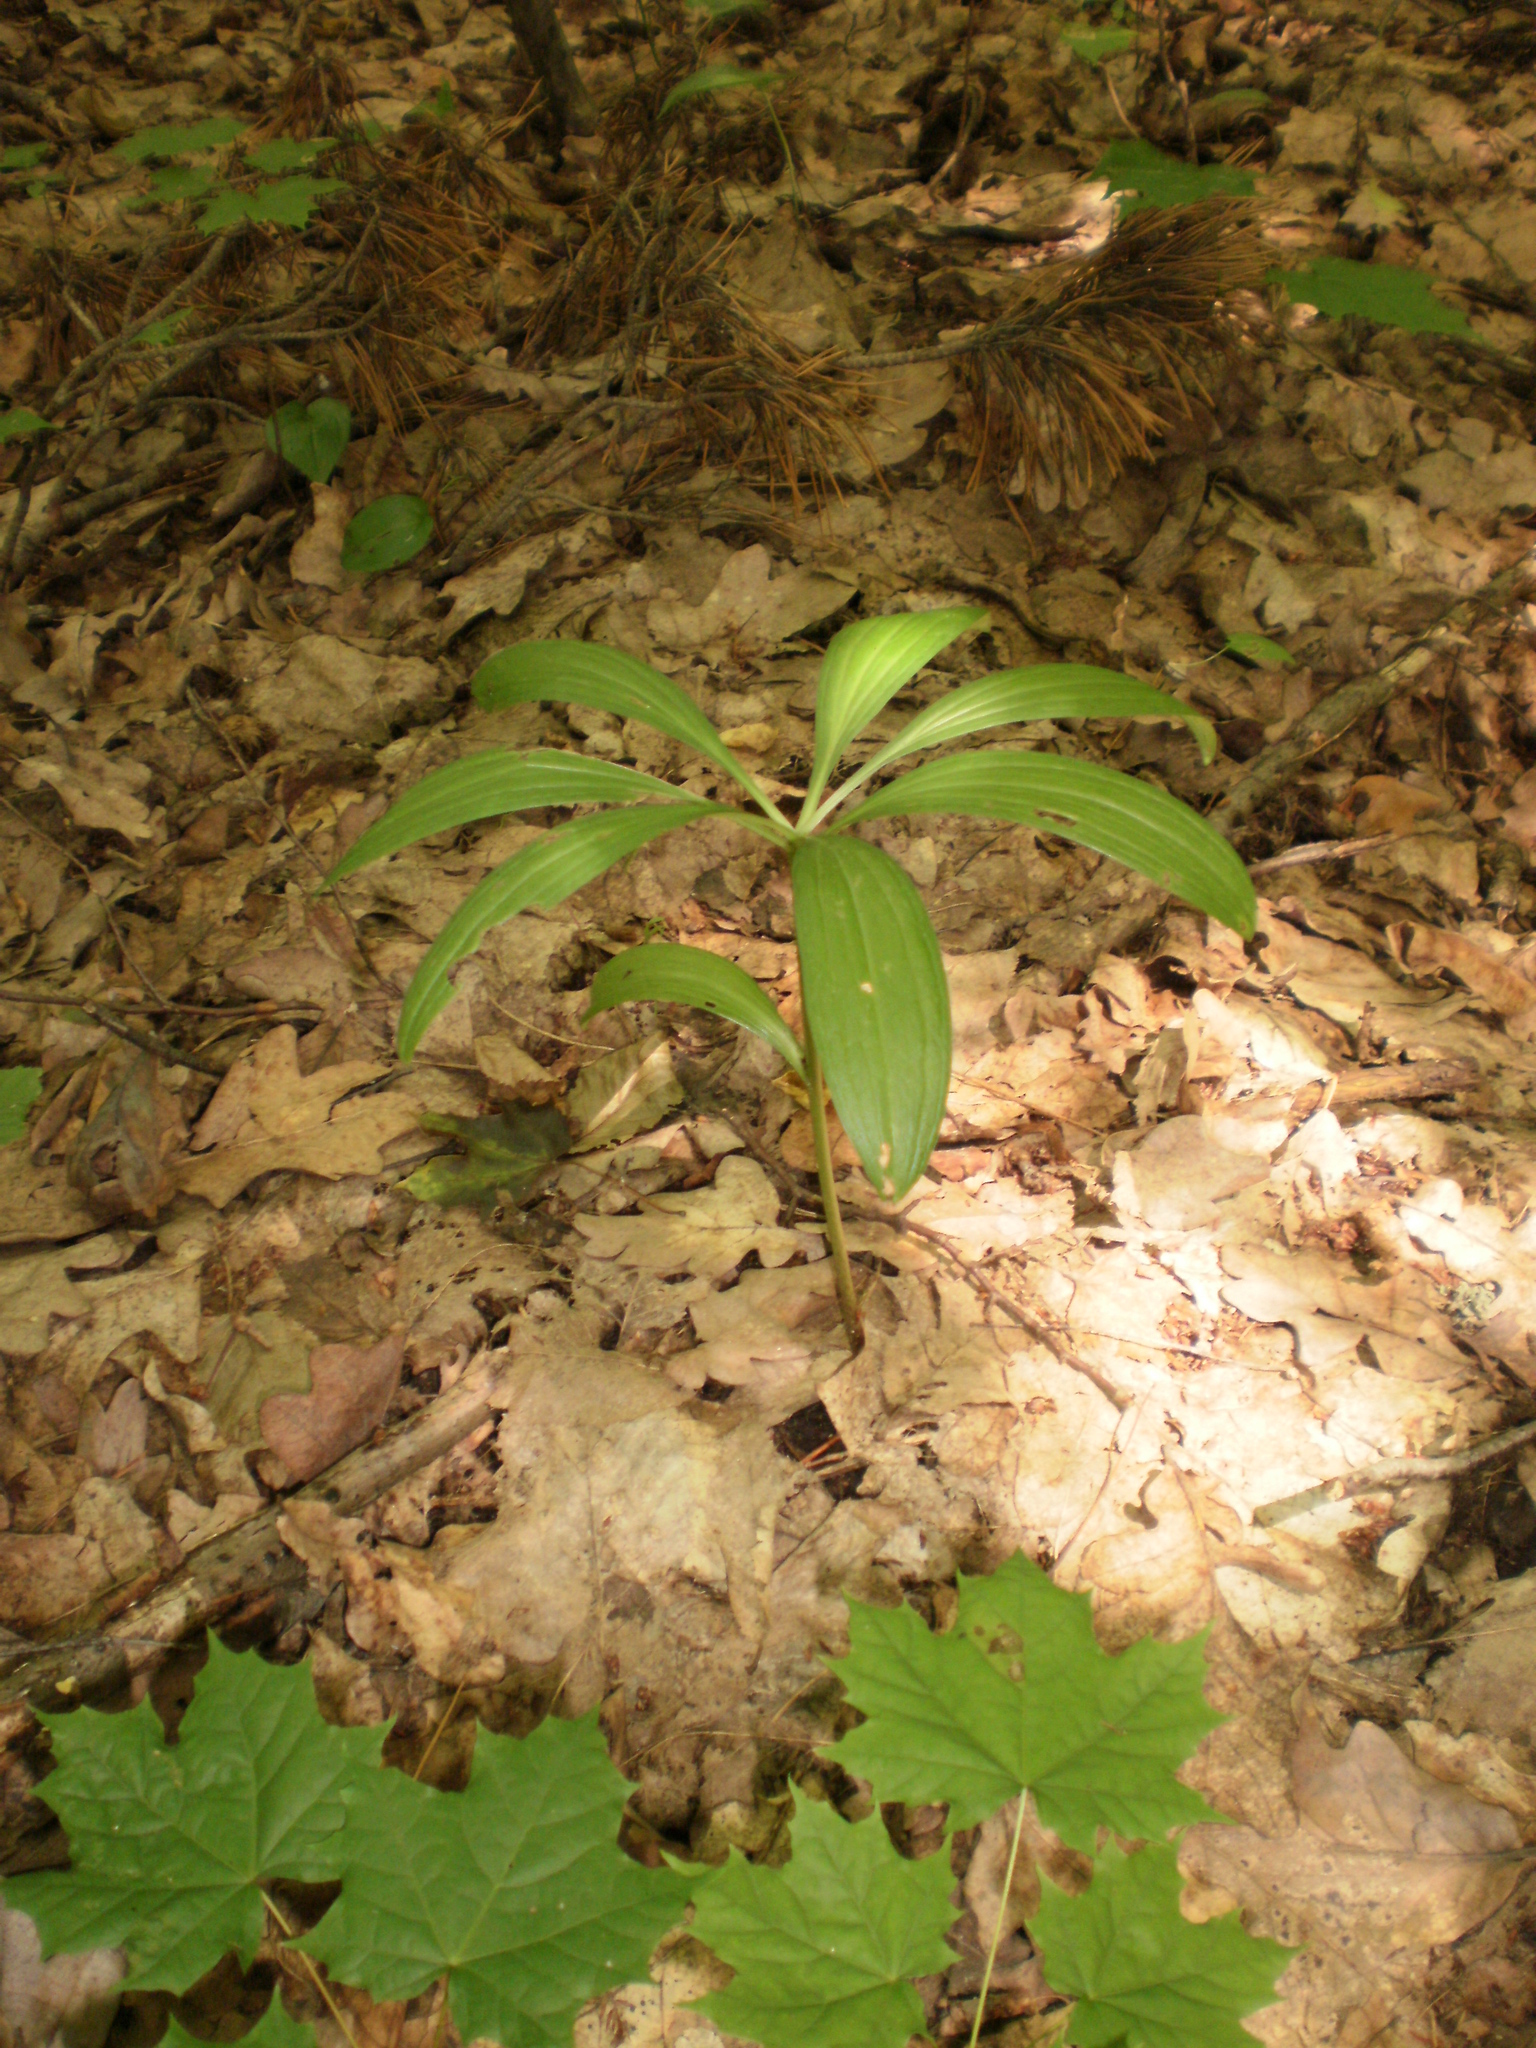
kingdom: Plantae
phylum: Tracheophyta
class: Liliopsida
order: Liliales
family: Liliaceae
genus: Lilium
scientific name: Lilium martagon
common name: Martagon lily
